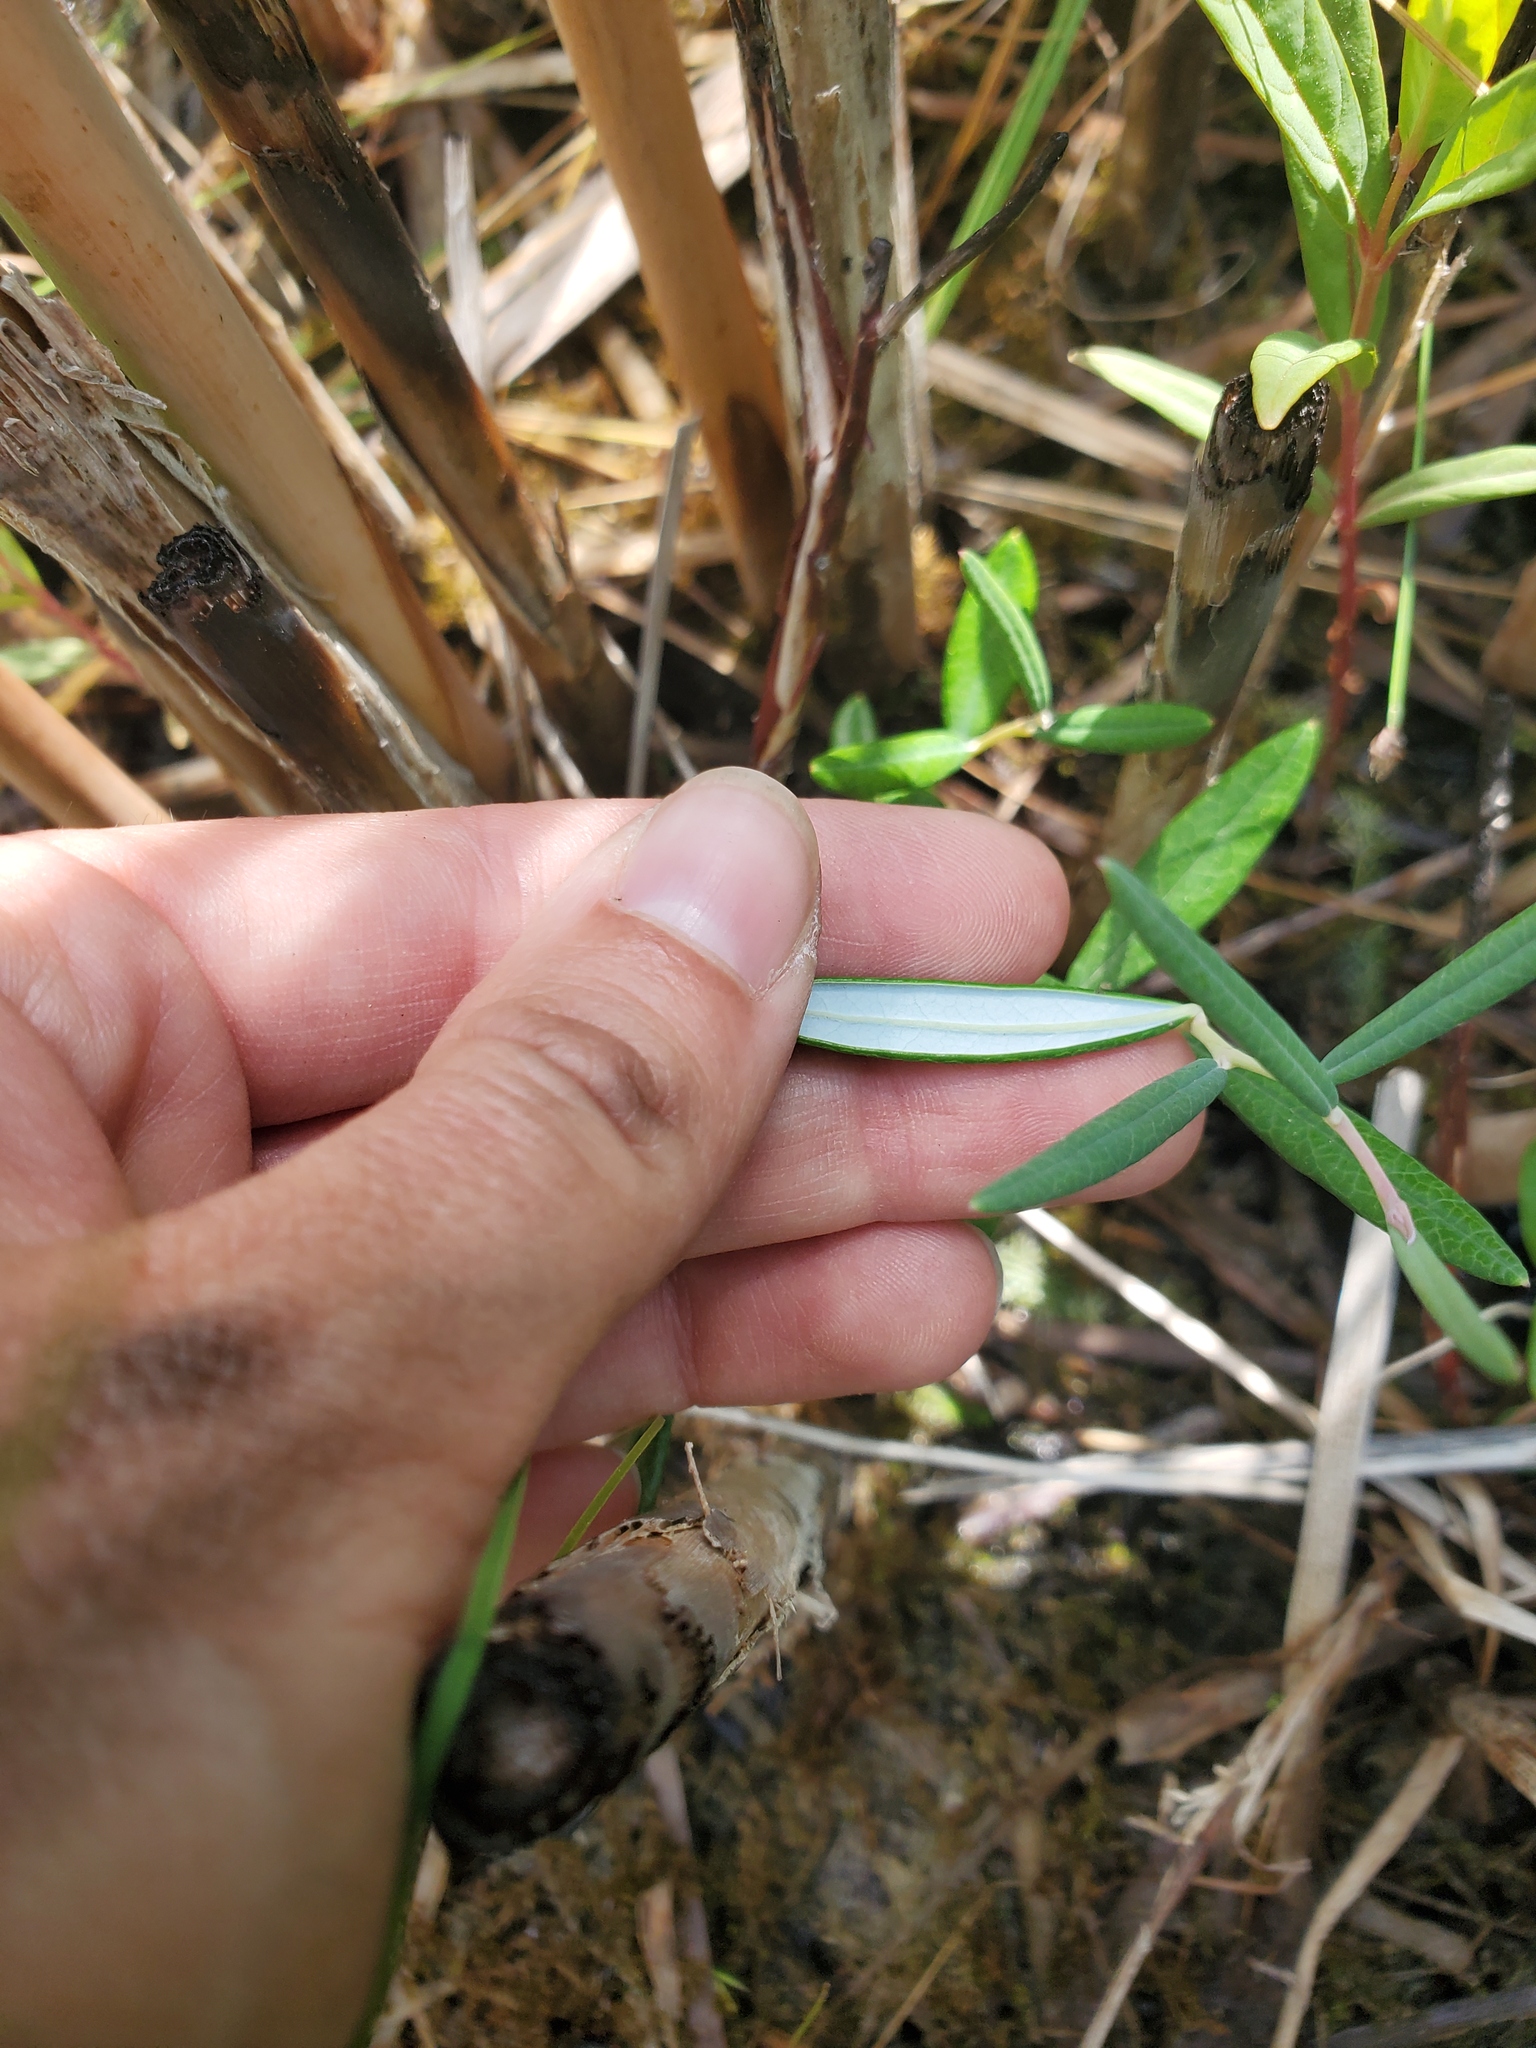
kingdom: Plantae
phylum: Tracheophyta
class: Magnoliopsida
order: Ericales
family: Ericaceae
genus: Andromeda
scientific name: Andromeda polifolia
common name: Bog-rosemary
